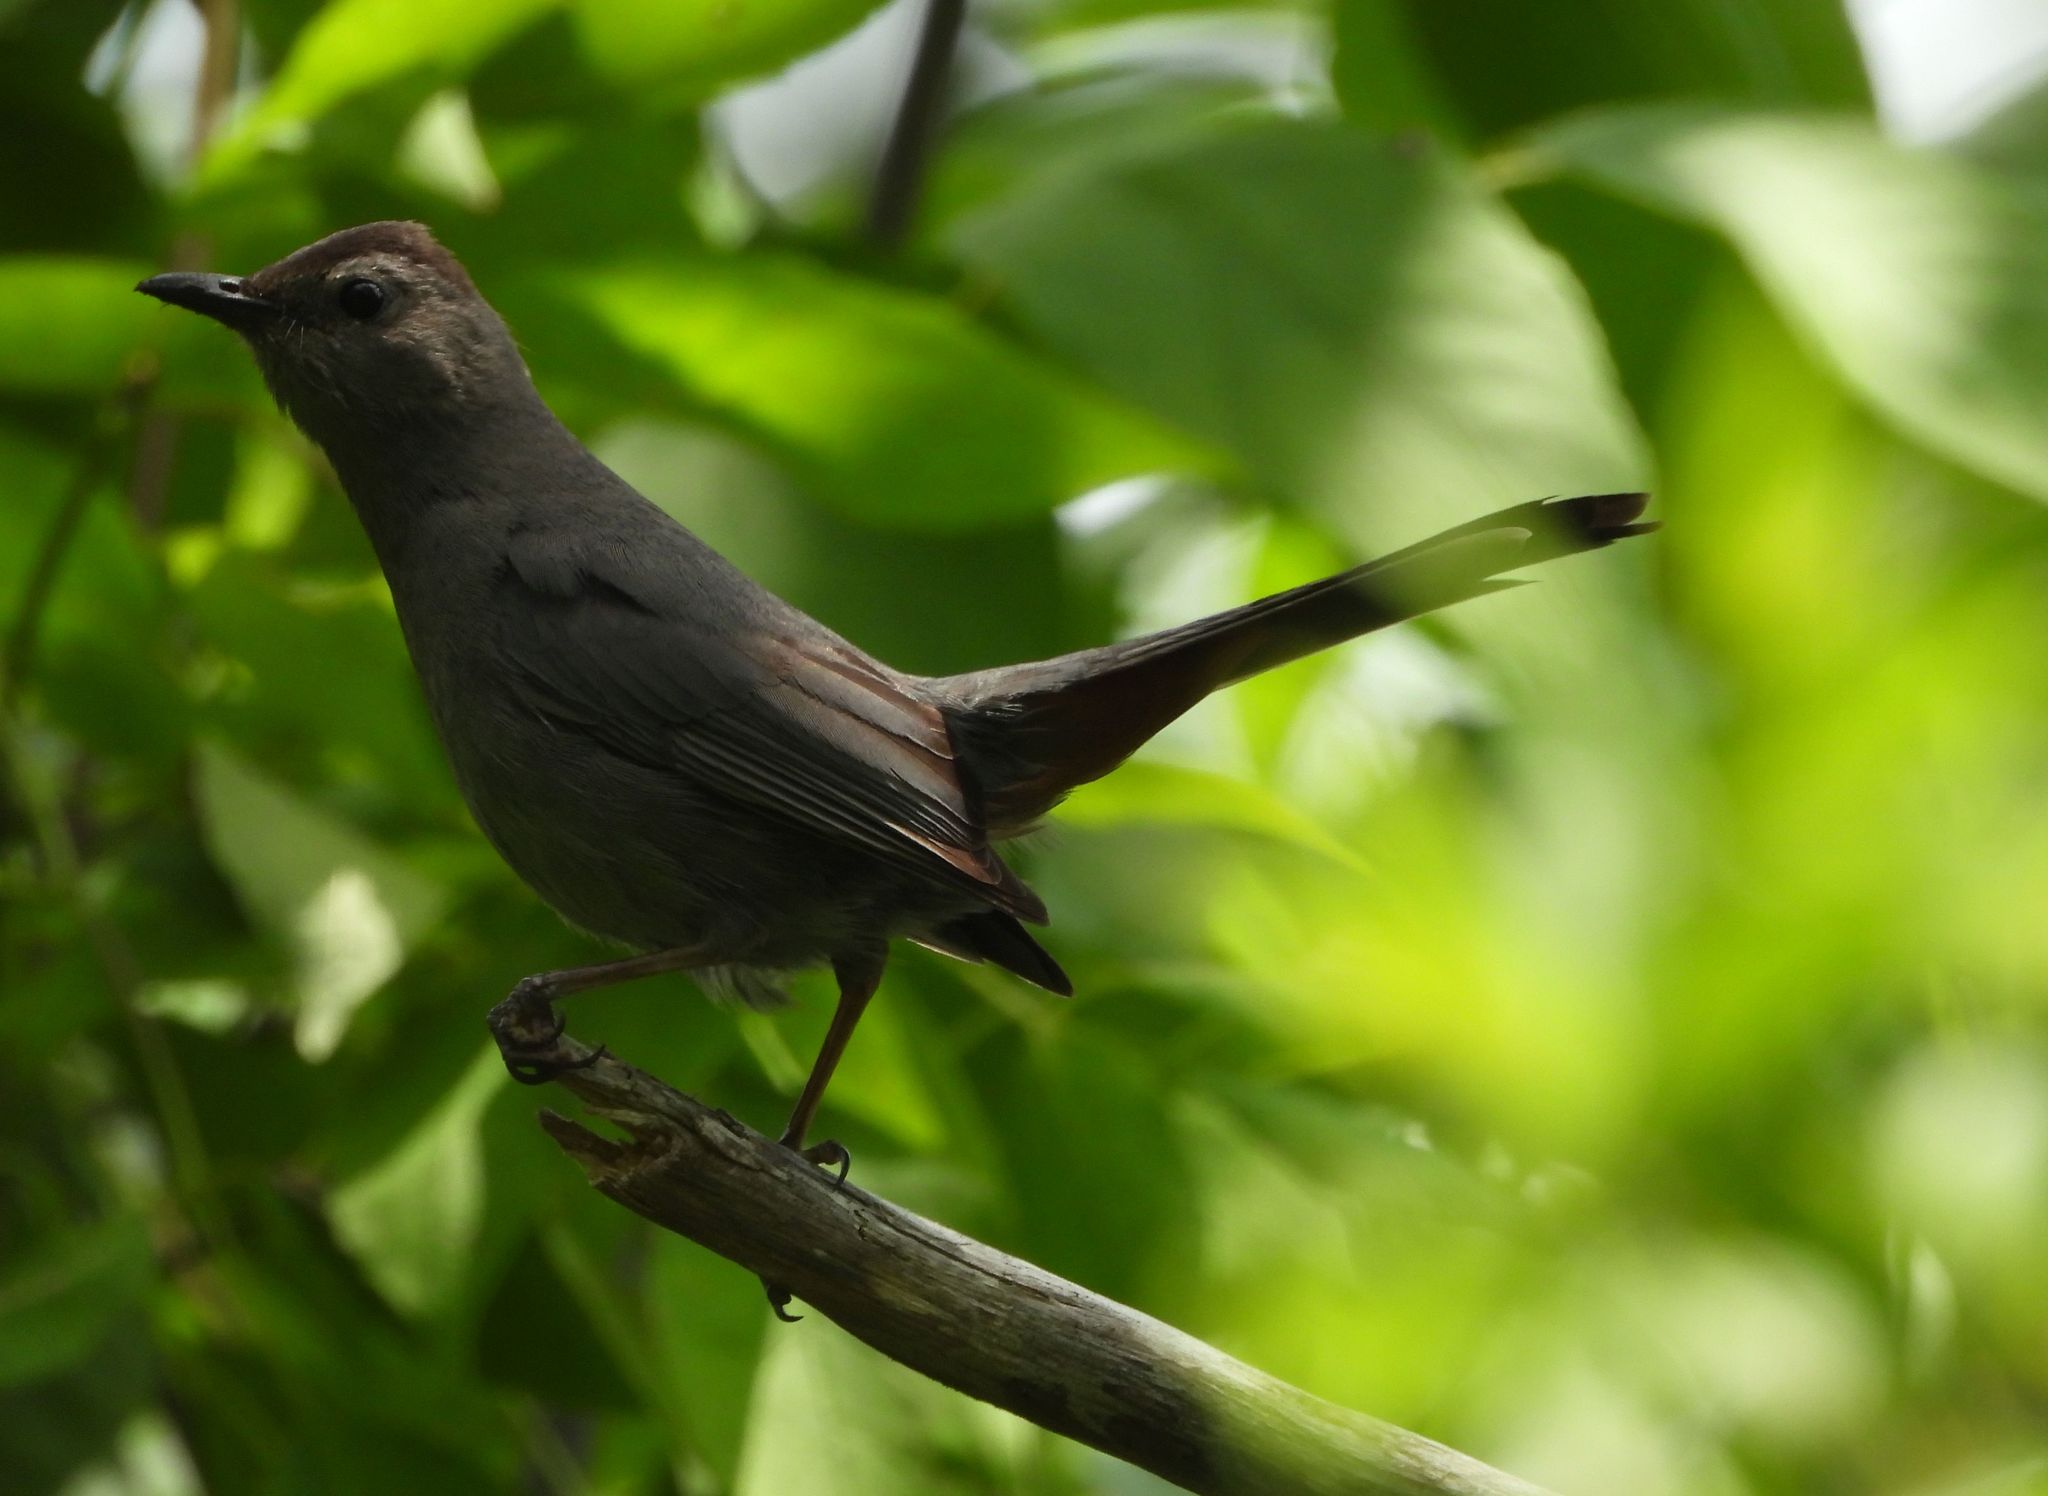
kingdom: Animalia
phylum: Chordata
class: Aves
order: Passeriformes
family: Mimidae
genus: Dumetella
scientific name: Dumetella carolinensis
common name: Gray catbird
